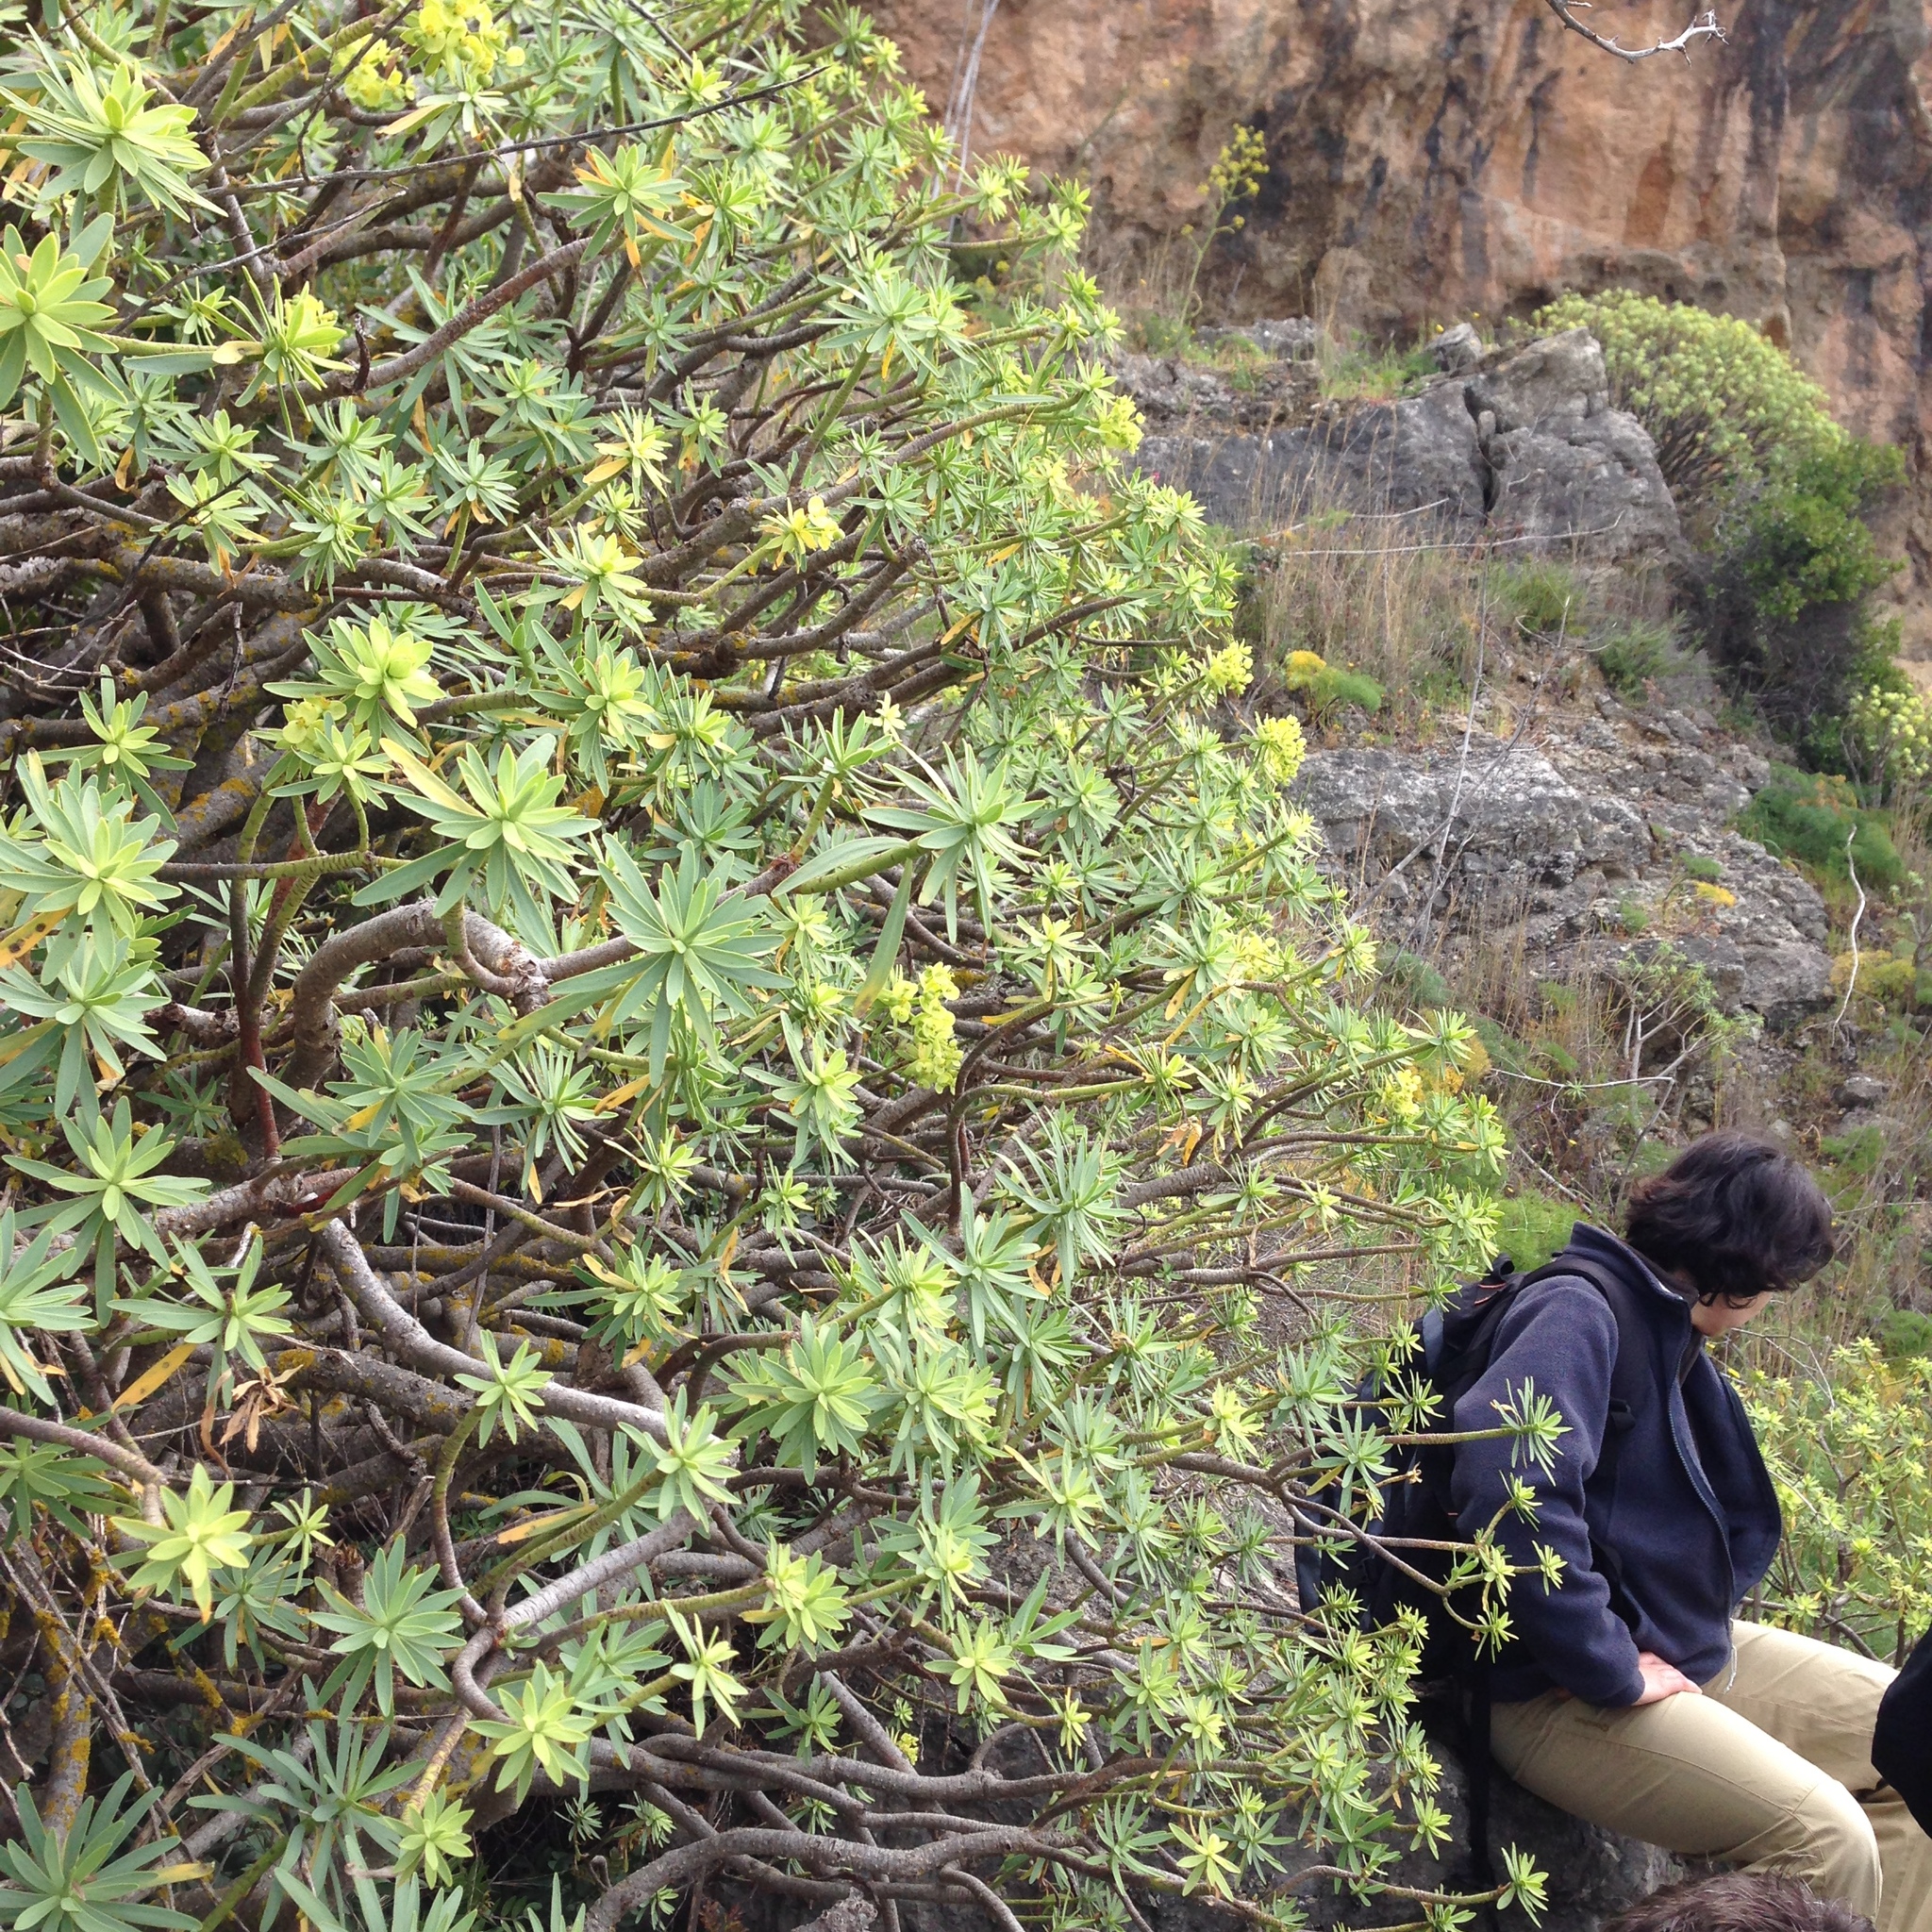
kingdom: Plantae
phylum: Tracheophyta
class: Magnoliopsida
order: Malpighiales
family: Euphorbiaceae
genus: Euphorbia
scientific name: Euphorbia pedroi
